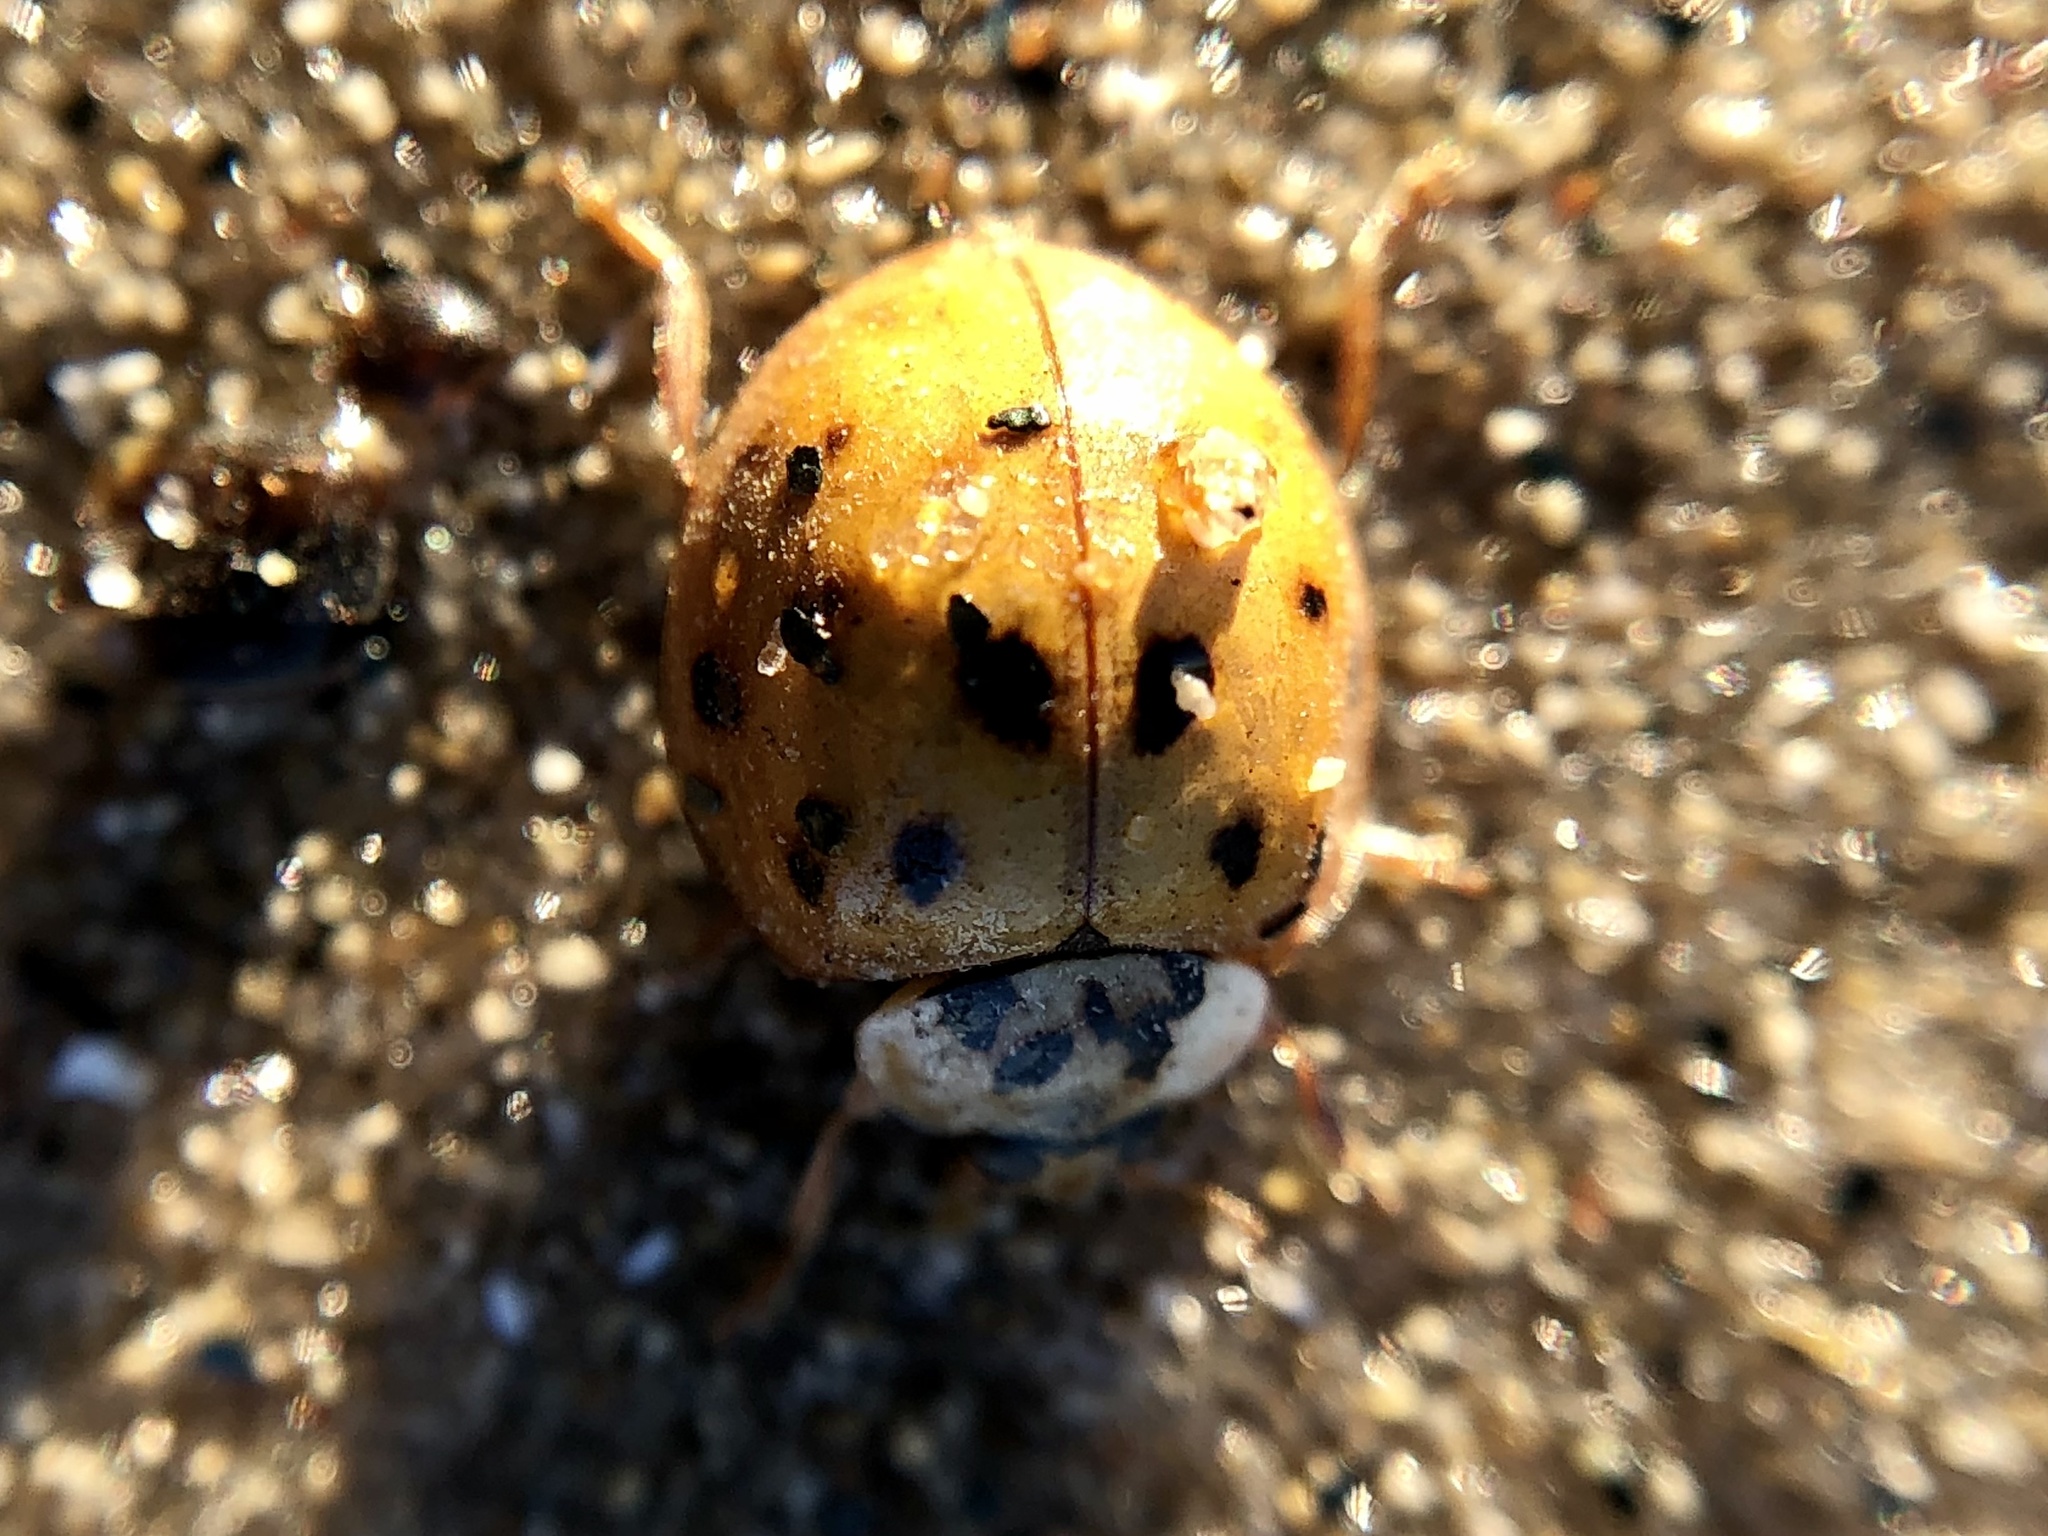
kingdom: Animalia
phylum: Arthropoda
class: Insecta
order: Coleoptera
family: Coccinellidae
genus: Harmonia
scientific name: Harmonia axyridis
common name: Harlequin ladybird
